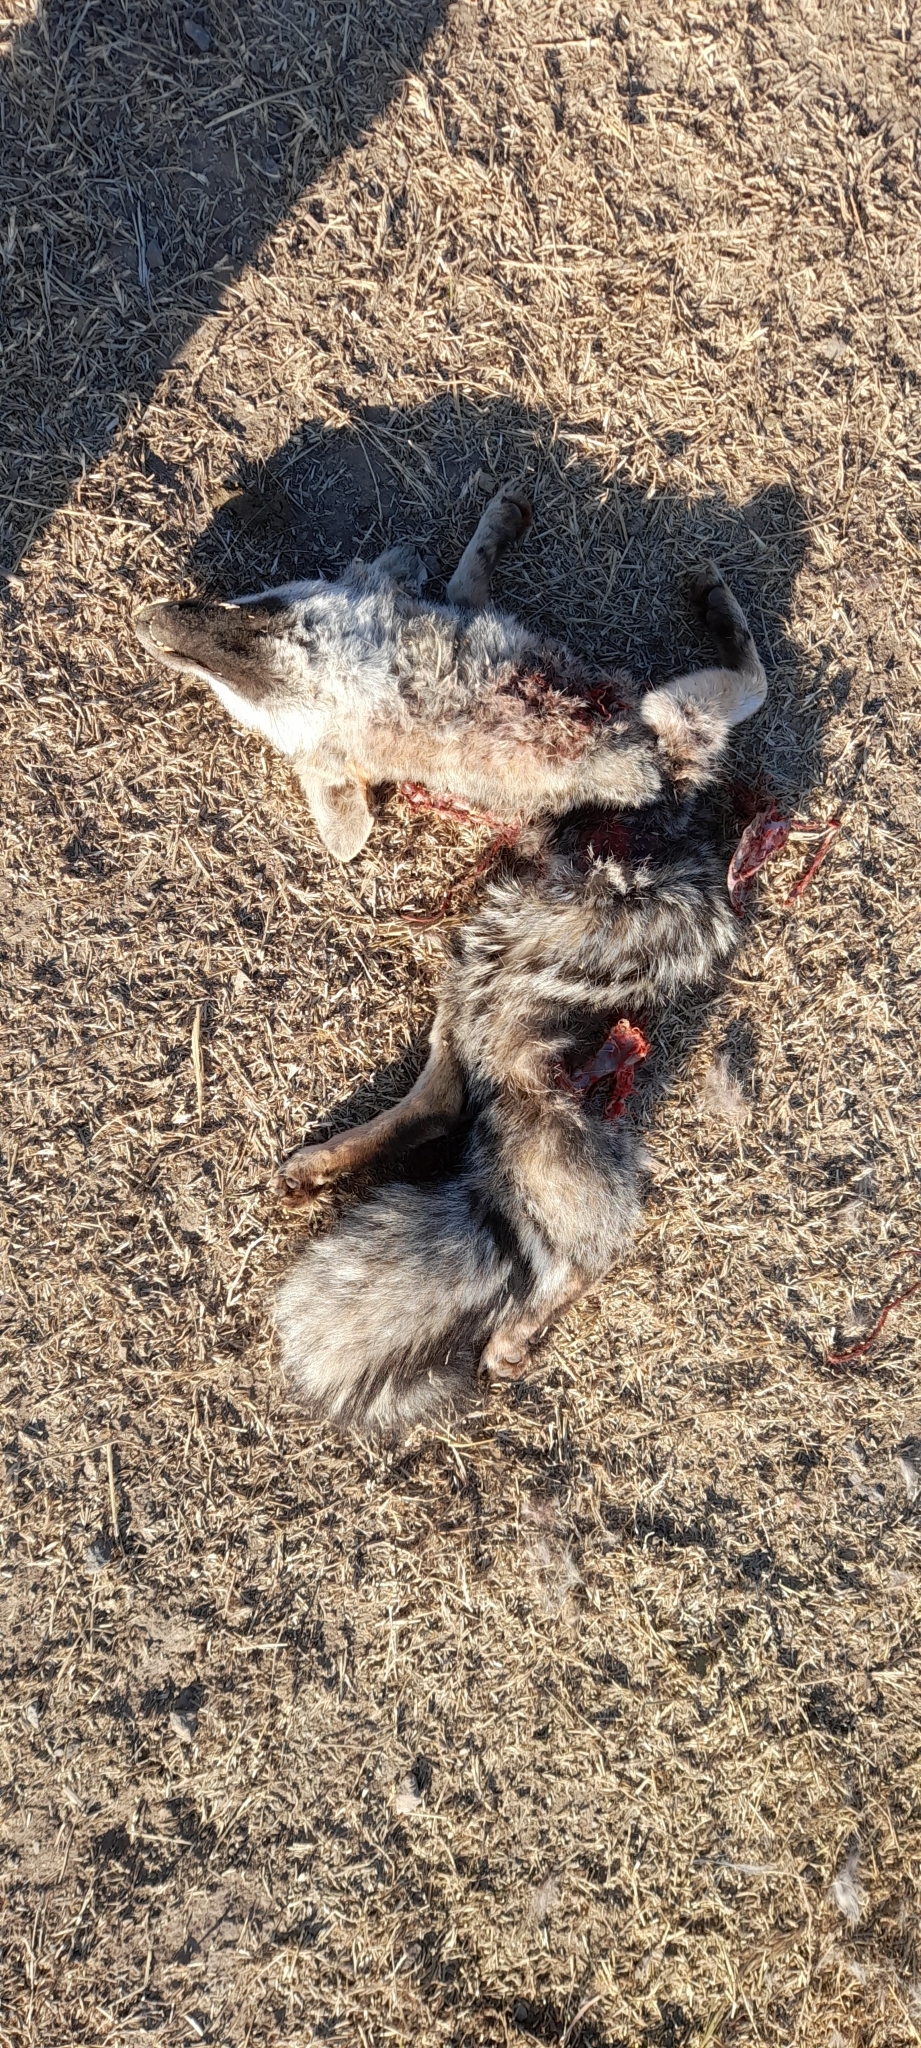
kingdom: Animalia
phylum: Chordata
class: Mammalia
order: Carnivora
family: Canidae
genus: Lycalopex
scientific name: Lycalopex gymnocercus
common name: Pampas fox
